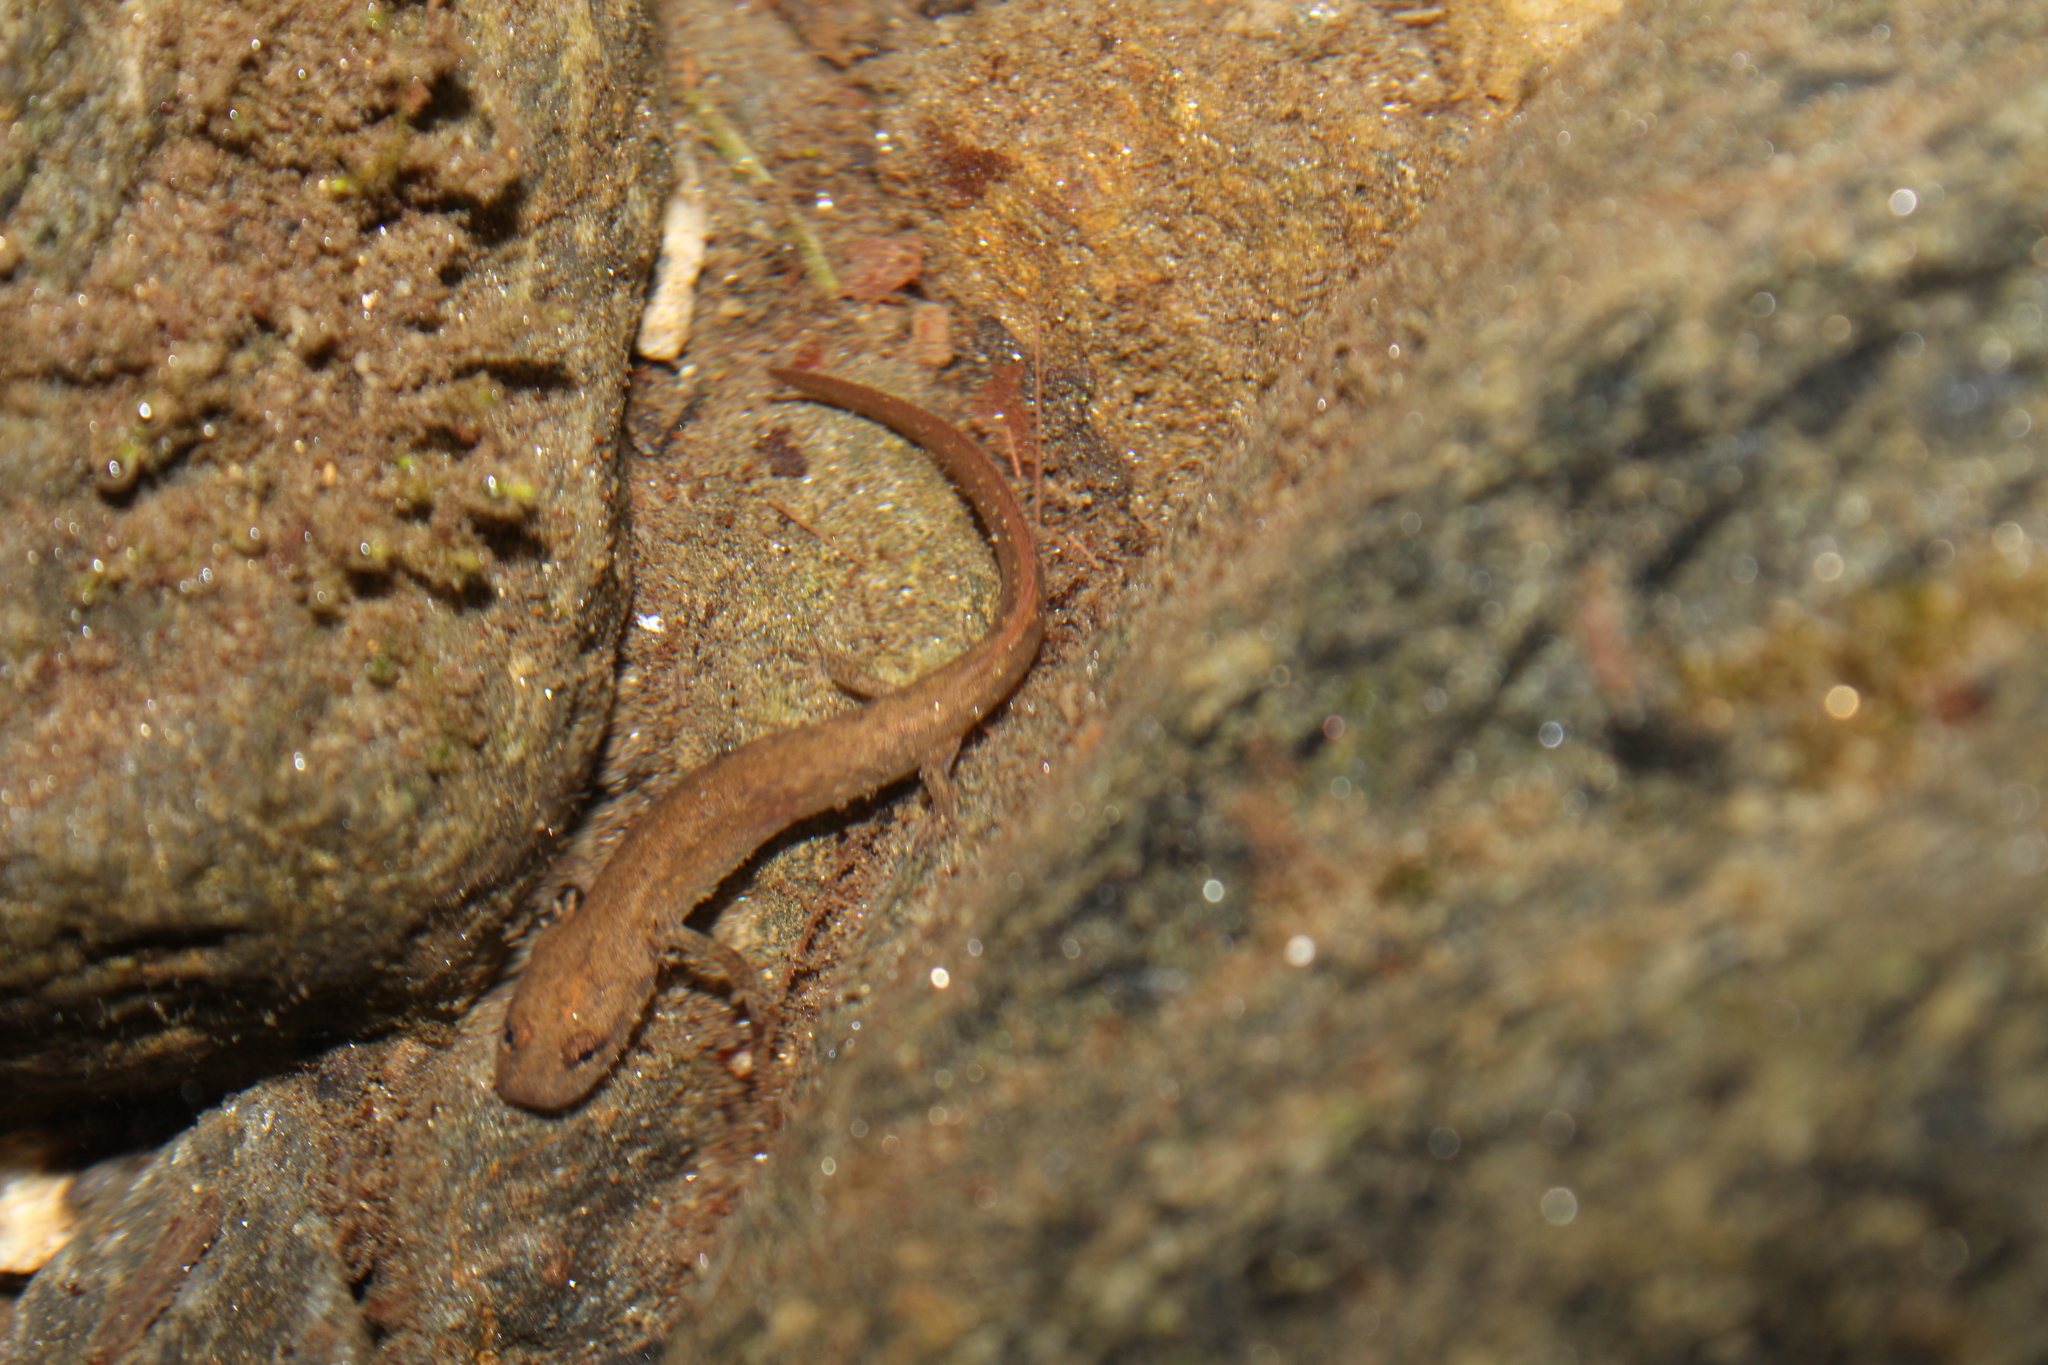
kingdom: Animalia
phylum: Chordata
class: Amphibia
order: Caudata
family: Plethodontidae
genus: Eurycea
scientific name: Eurycea bislineata
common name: Northern two-lined salamander
